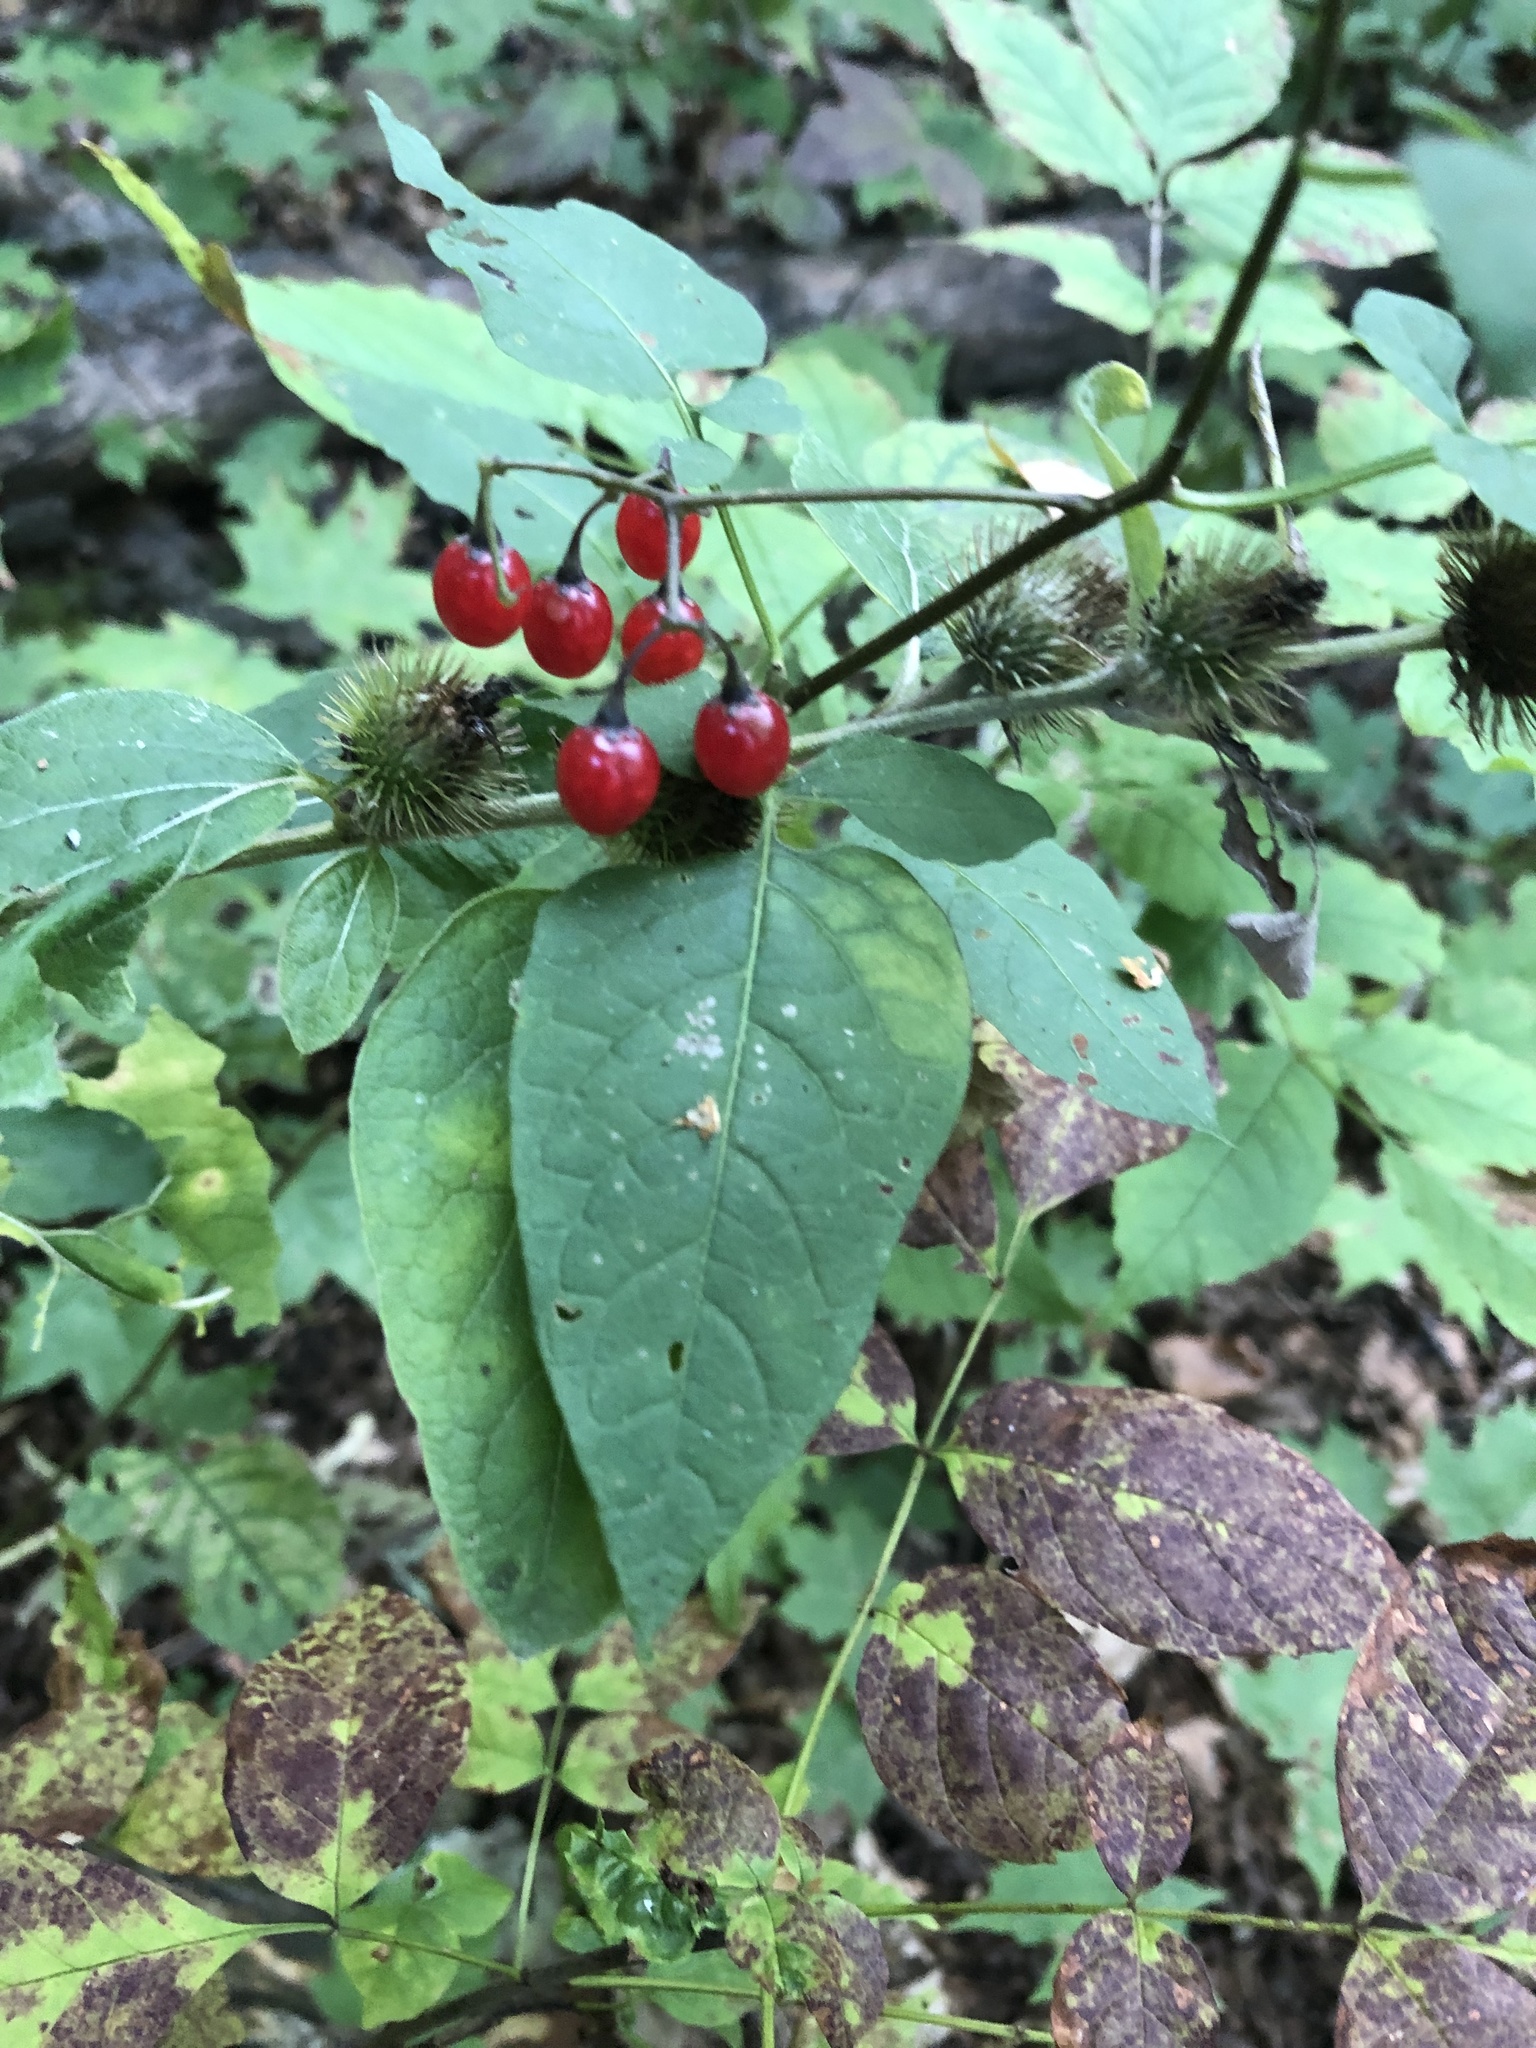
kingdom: Plantae
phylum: Tracheophyta
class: Magnoliopsida
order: Solanales
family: Solanaceae
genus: Solanum
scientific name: Solanum dulcamara
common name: Climbing nightshade
